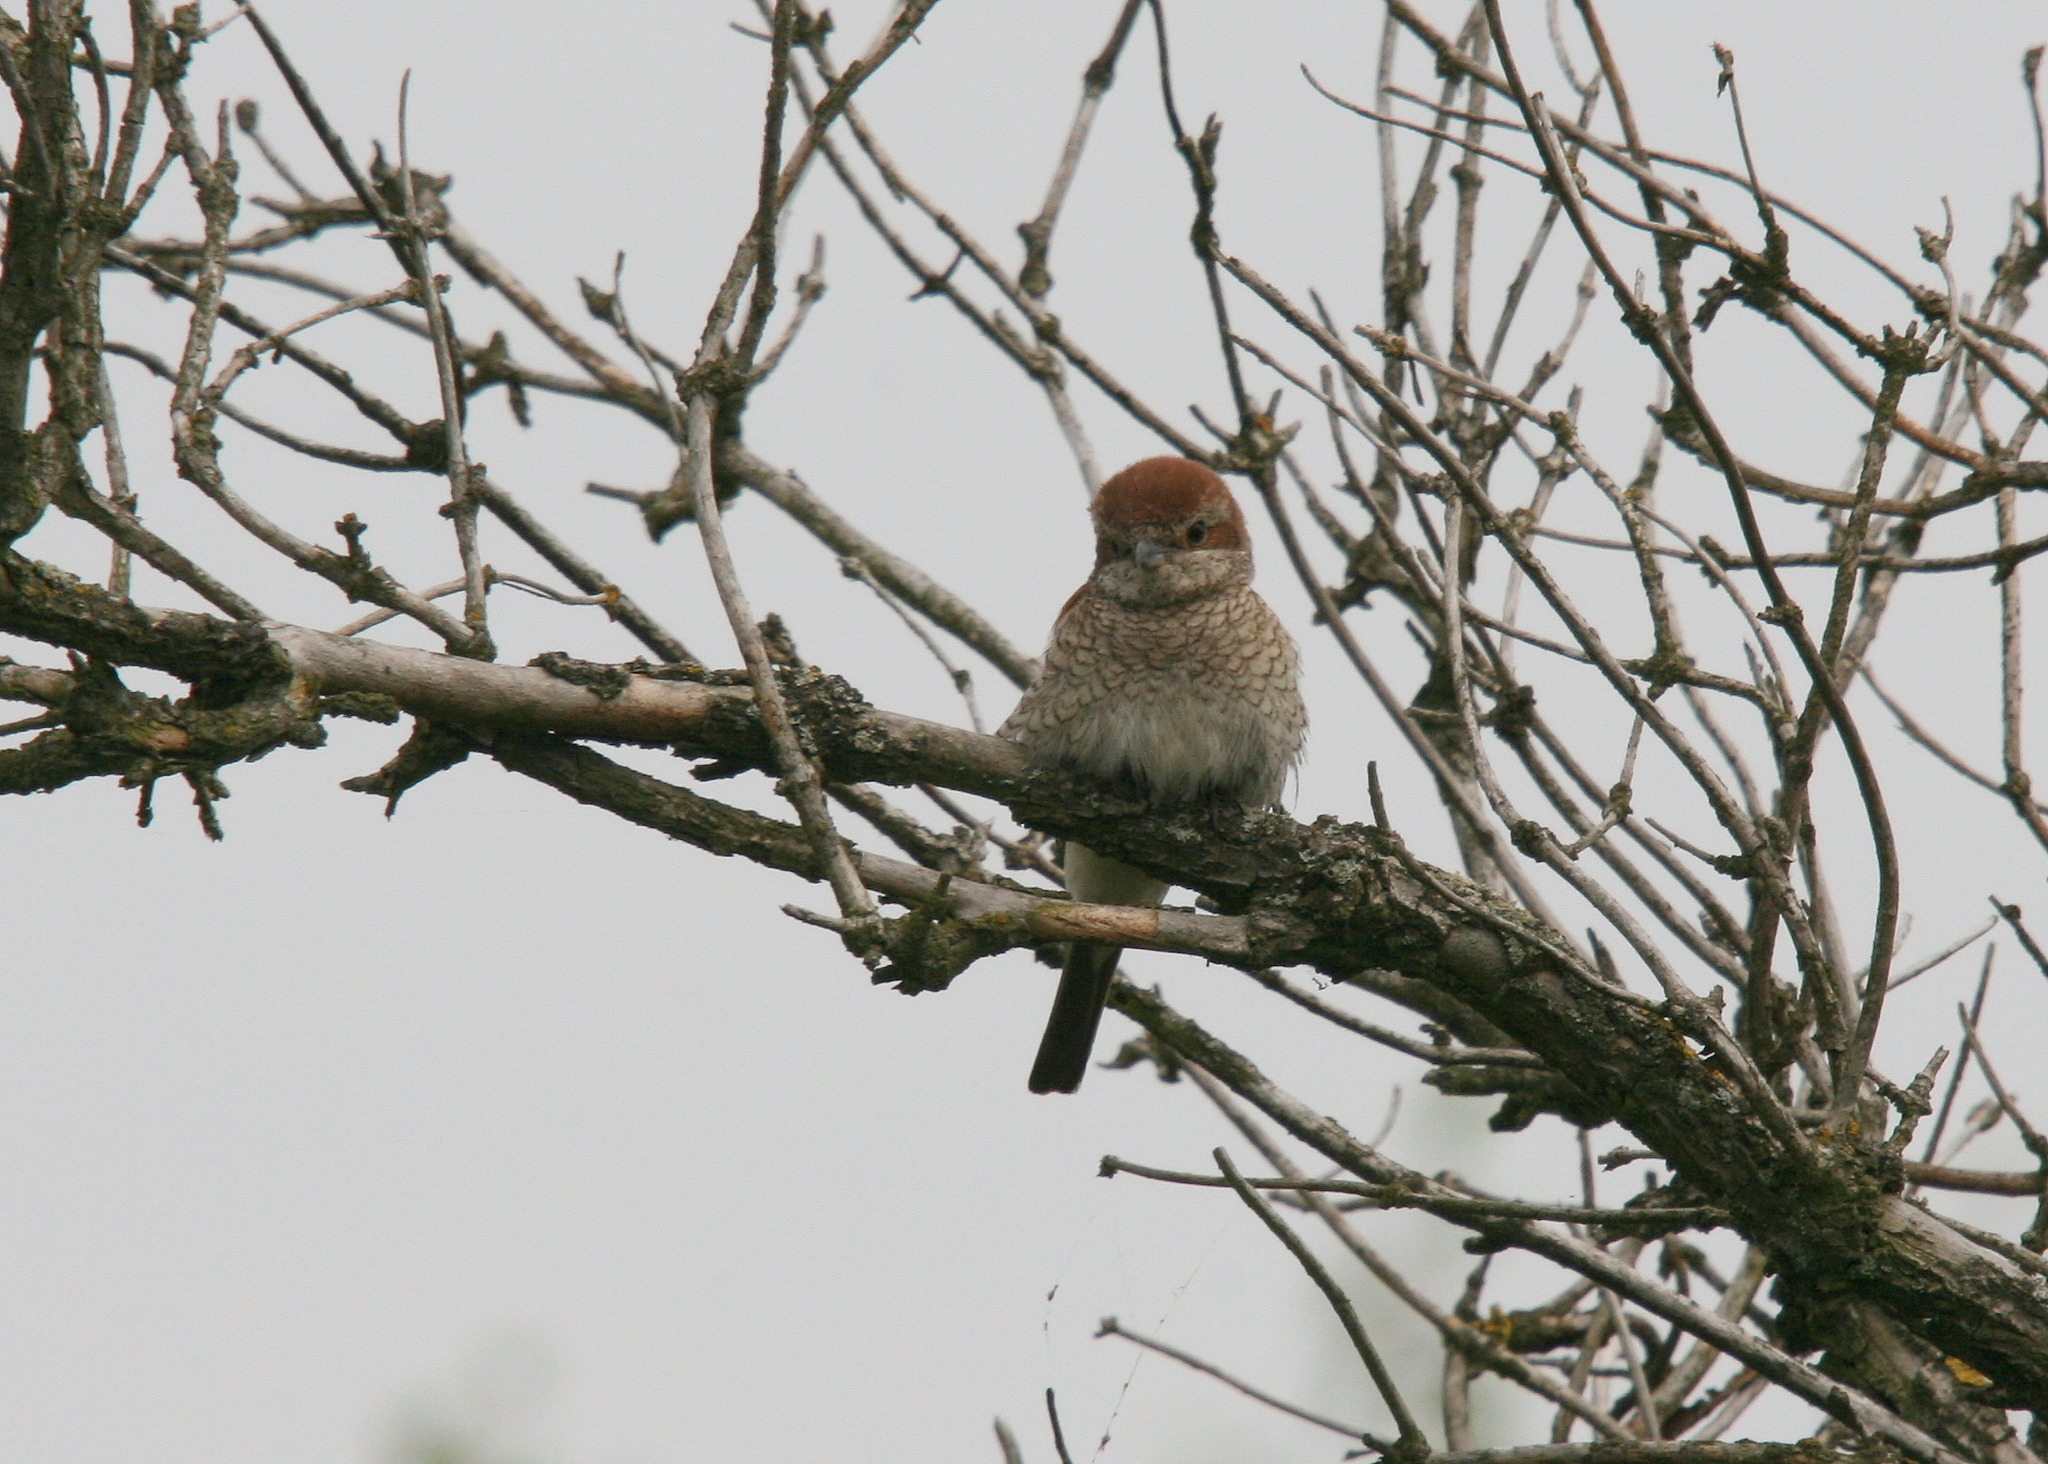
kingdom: Animalia
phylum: Chordata
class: Aves
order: Passeriformes
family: Laniidae
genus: Lanius
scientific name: Lanius collurio
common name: Red-backed shrike
